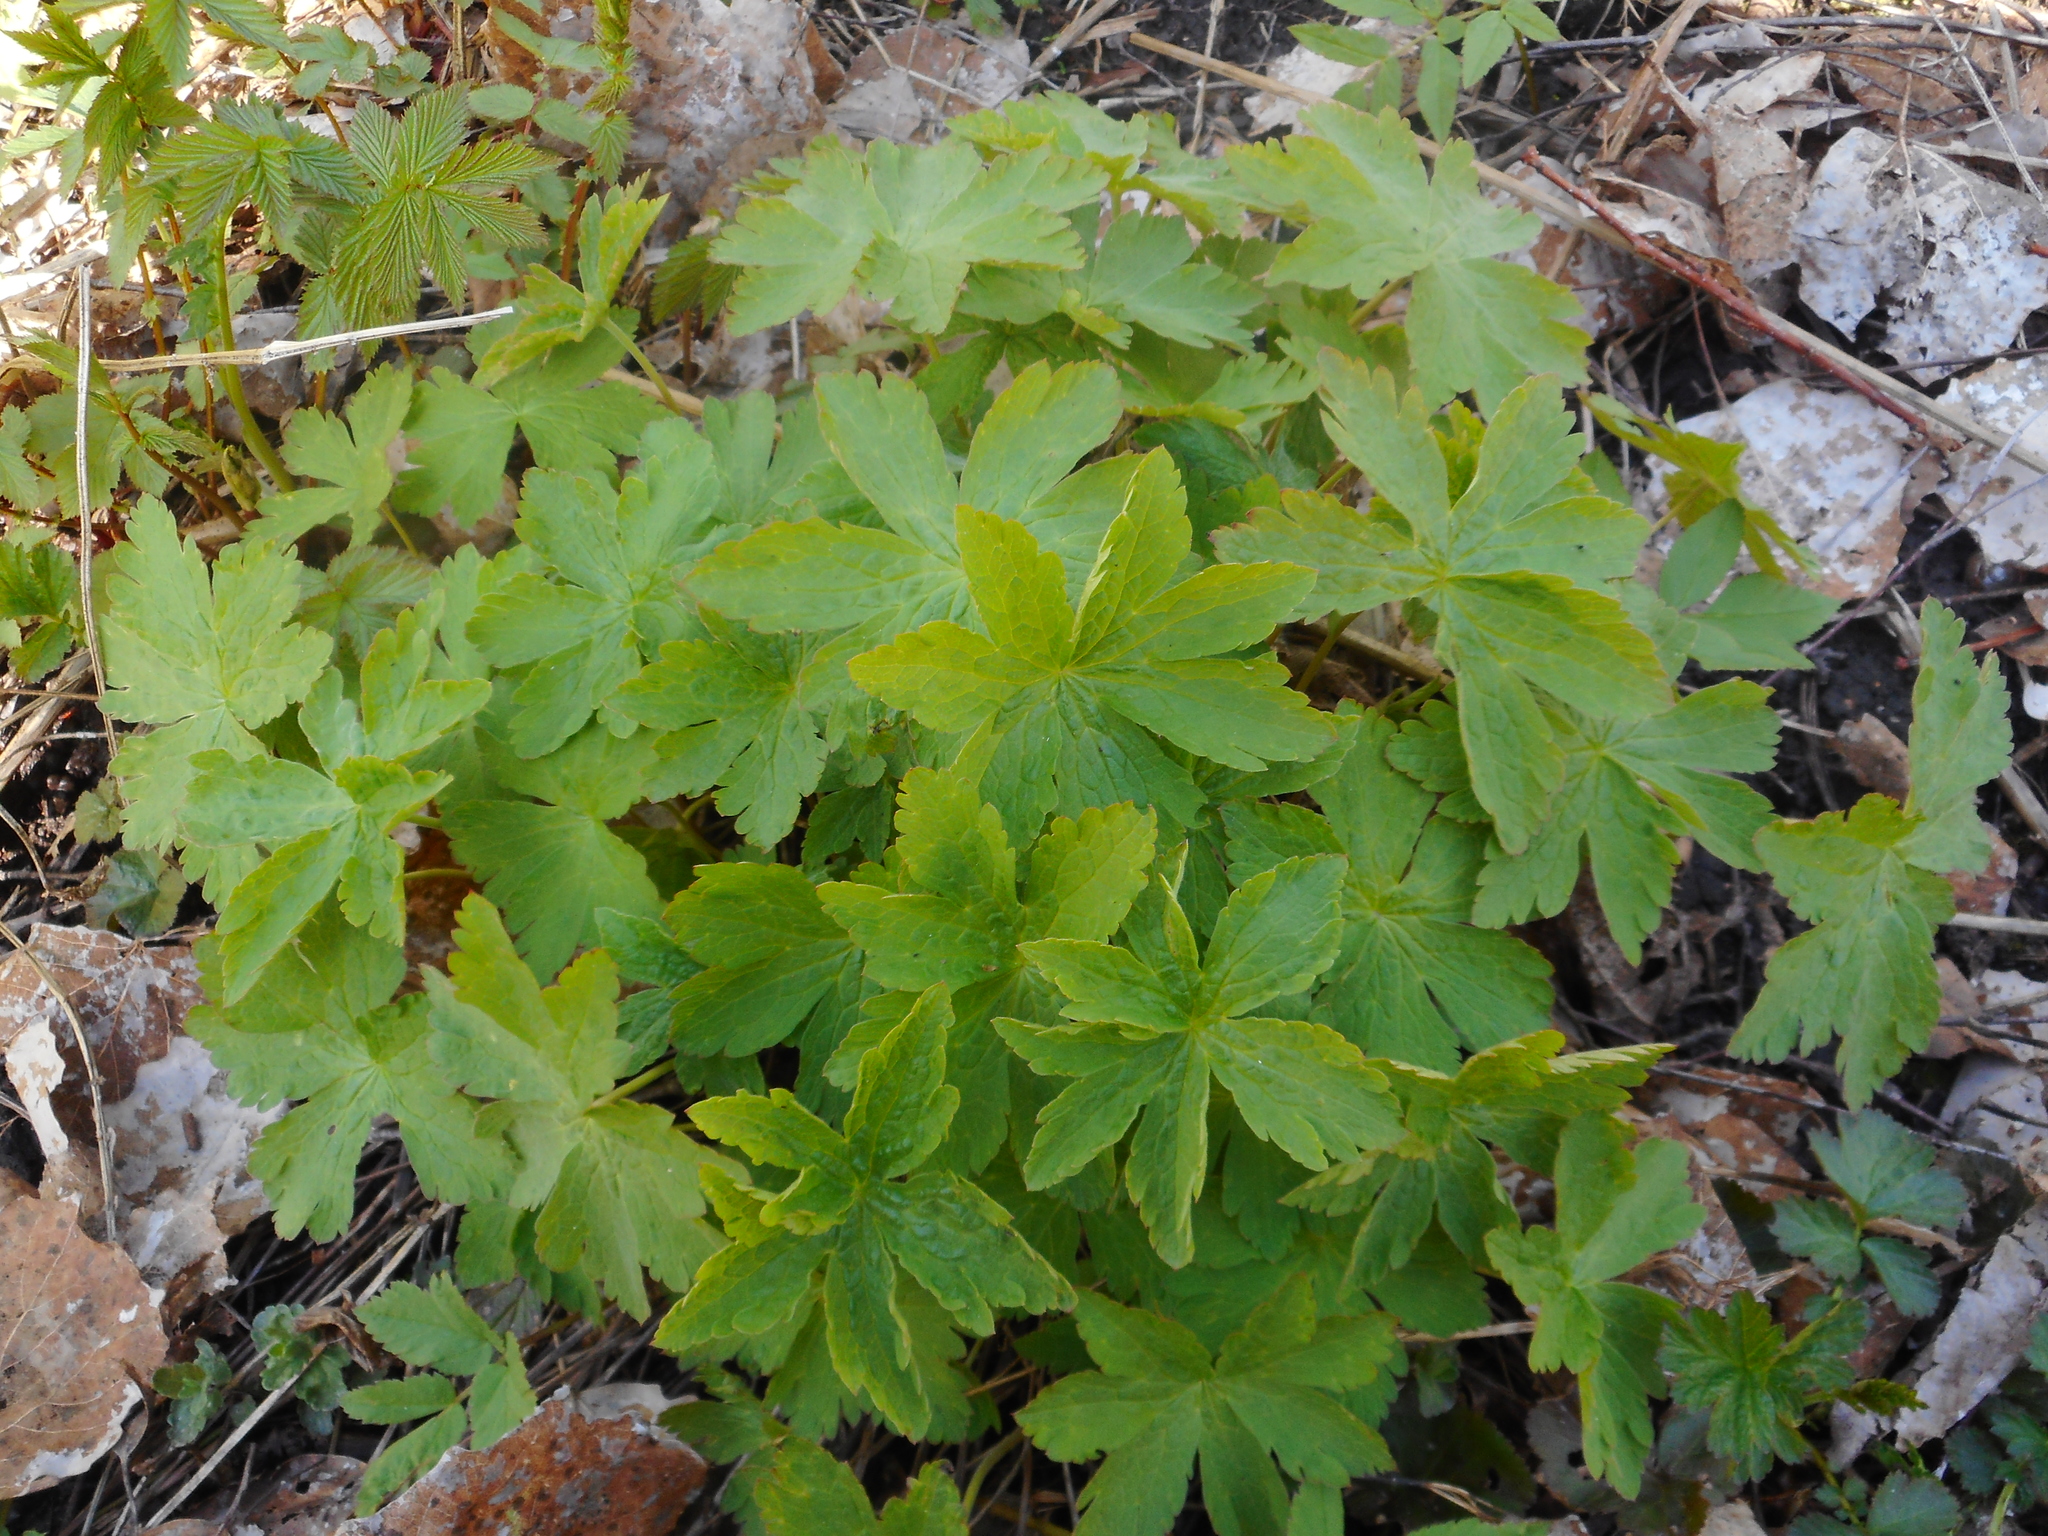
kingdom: Plantae
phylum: Tracheophyta
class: Magnoliopsida
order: Geraniales
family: Geraniaceae
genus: Geranium
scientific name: Geranium sylvaticum
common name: Wood crane's-bill
